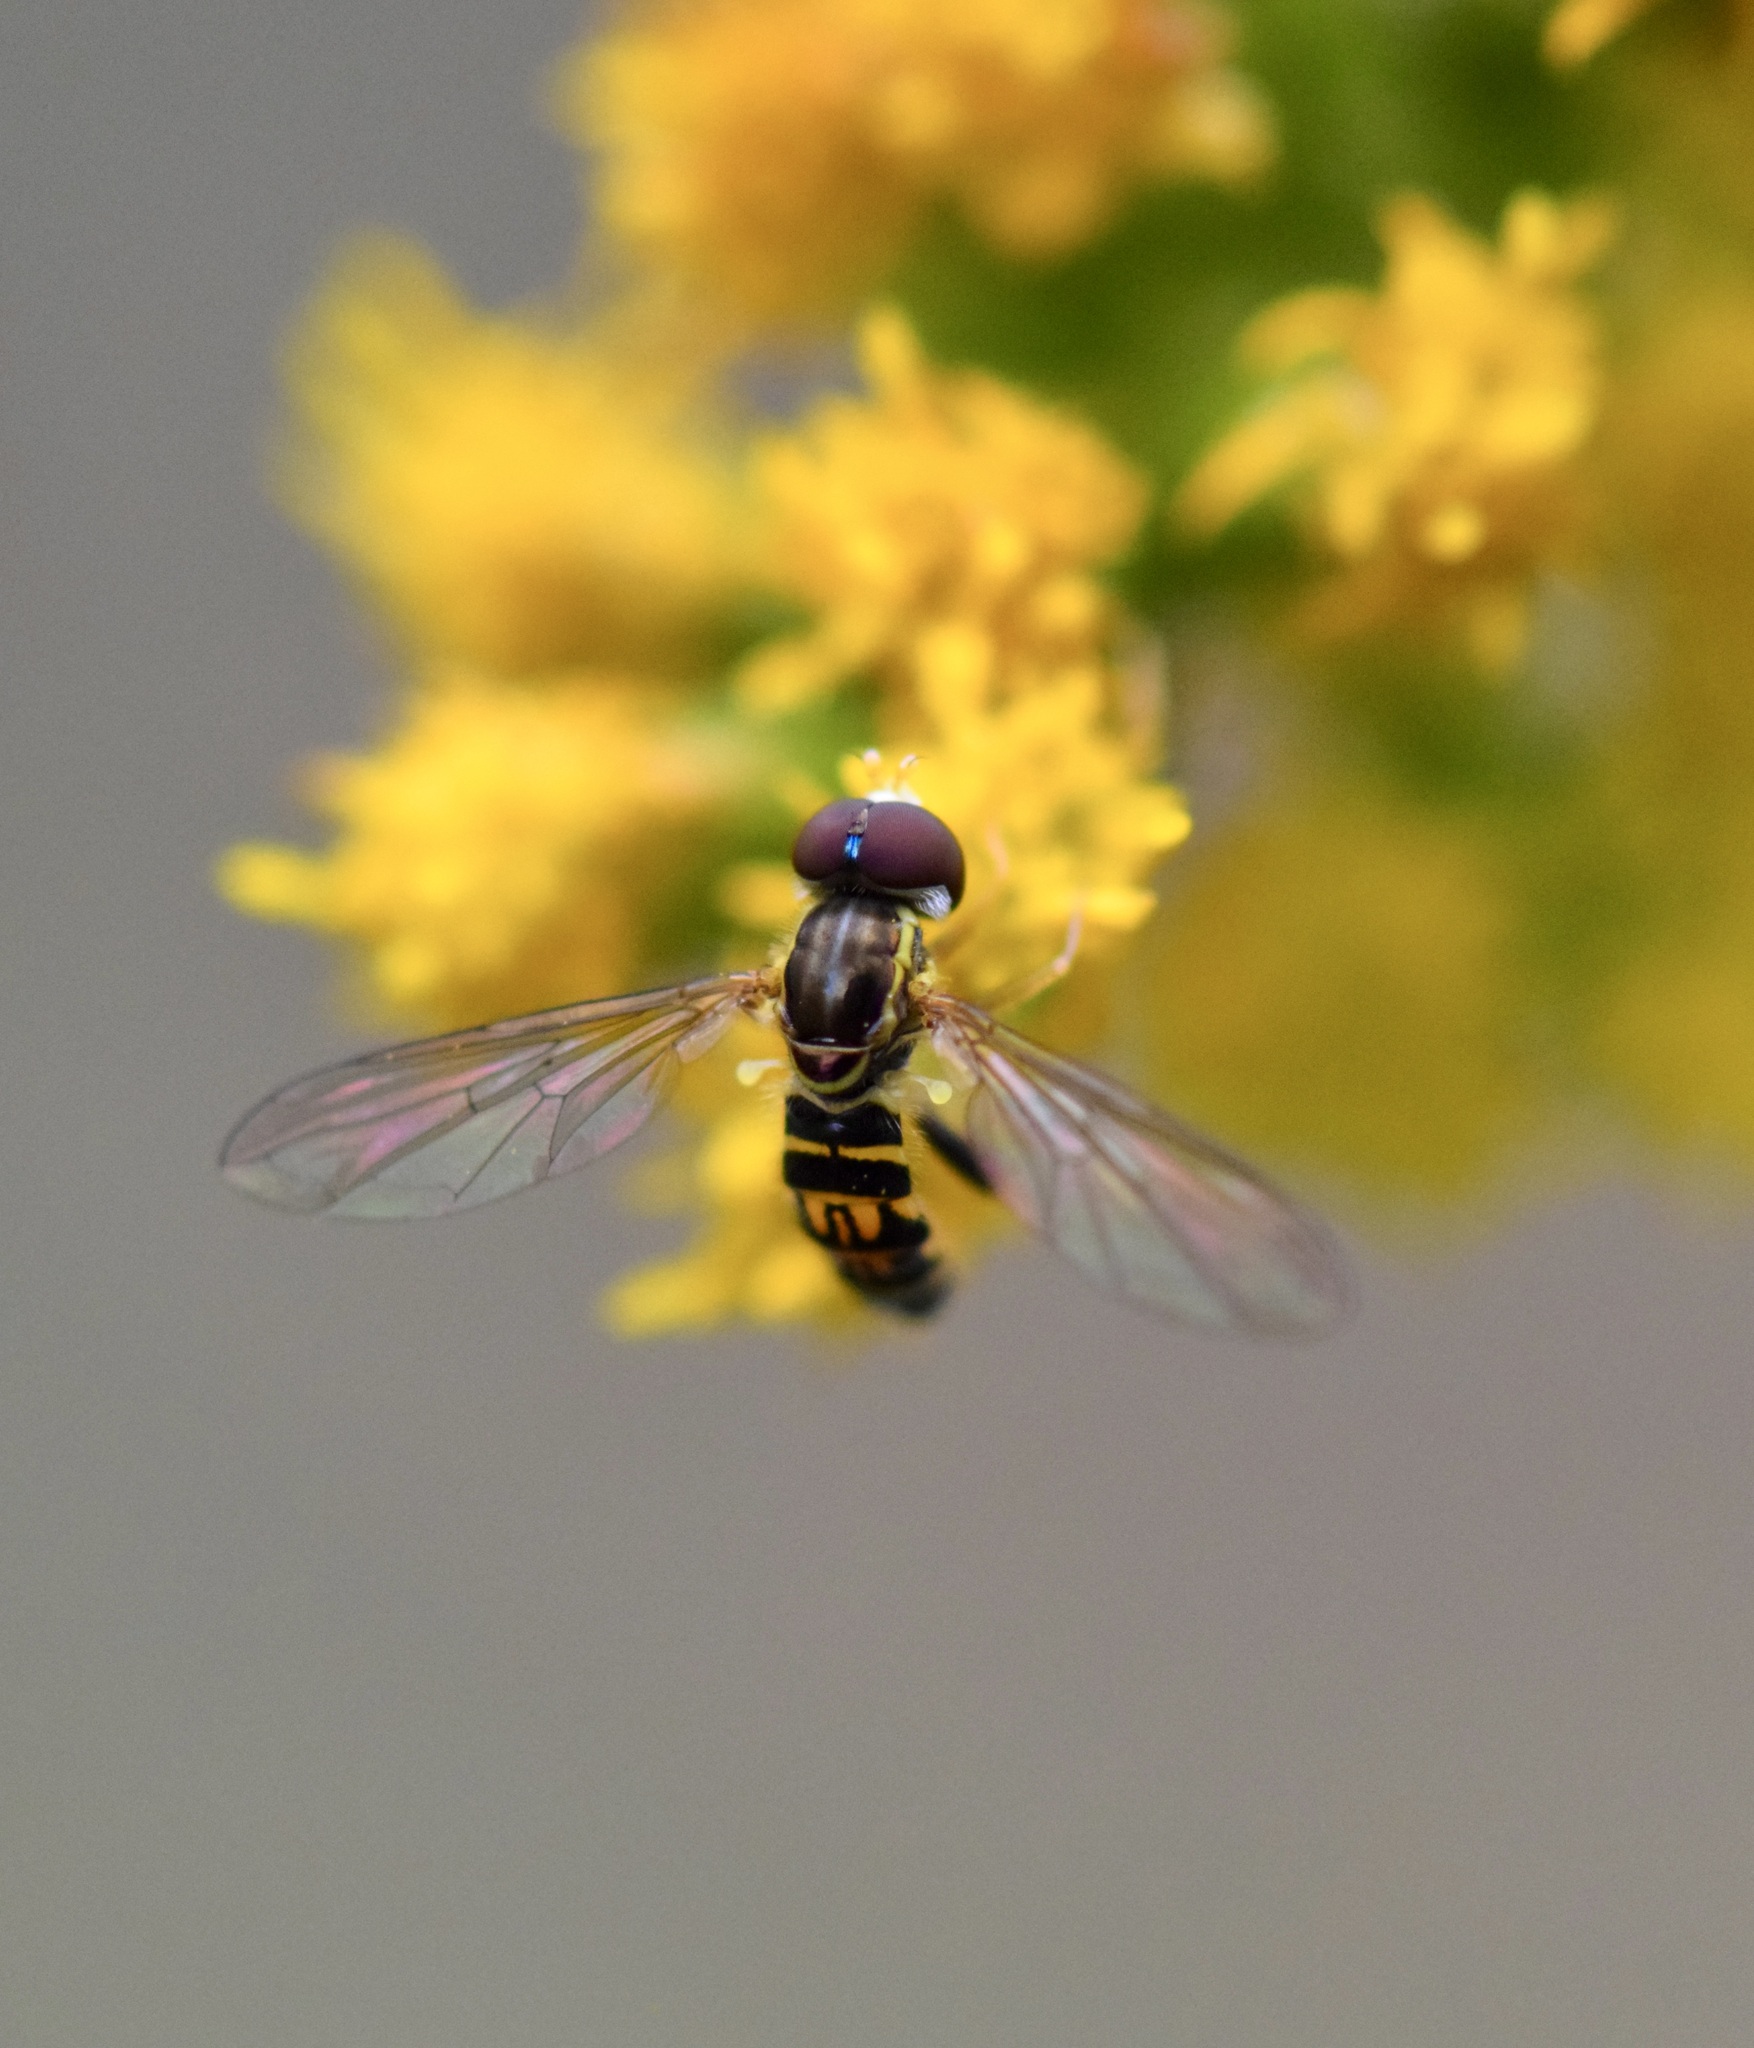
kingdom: Animalia
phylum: Arthropoda
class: Insecta
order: Diptera
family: Syrphidae
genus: Toxomerus
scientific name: Toxomerus geminatus
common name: Eastern calligrapher
